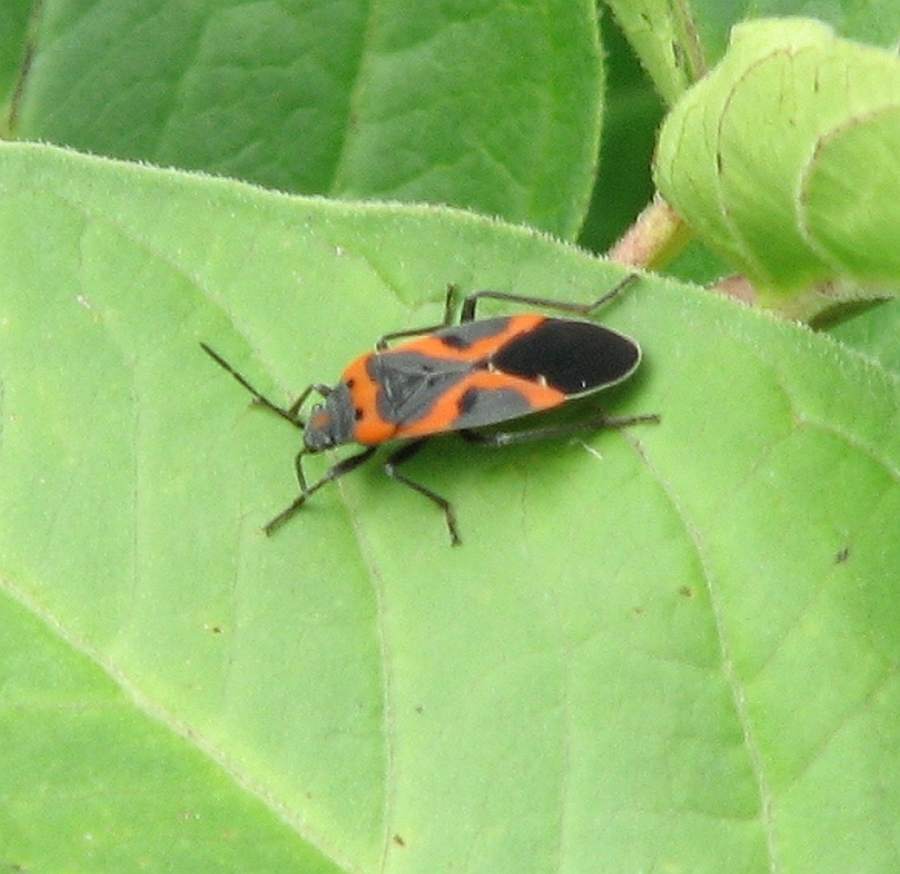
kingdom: Animalia
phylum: Arthropoda
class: Insecta
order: Hemiptera
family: Lygaeidae
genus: Lygaeus
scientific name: Lygaeus kalmii
